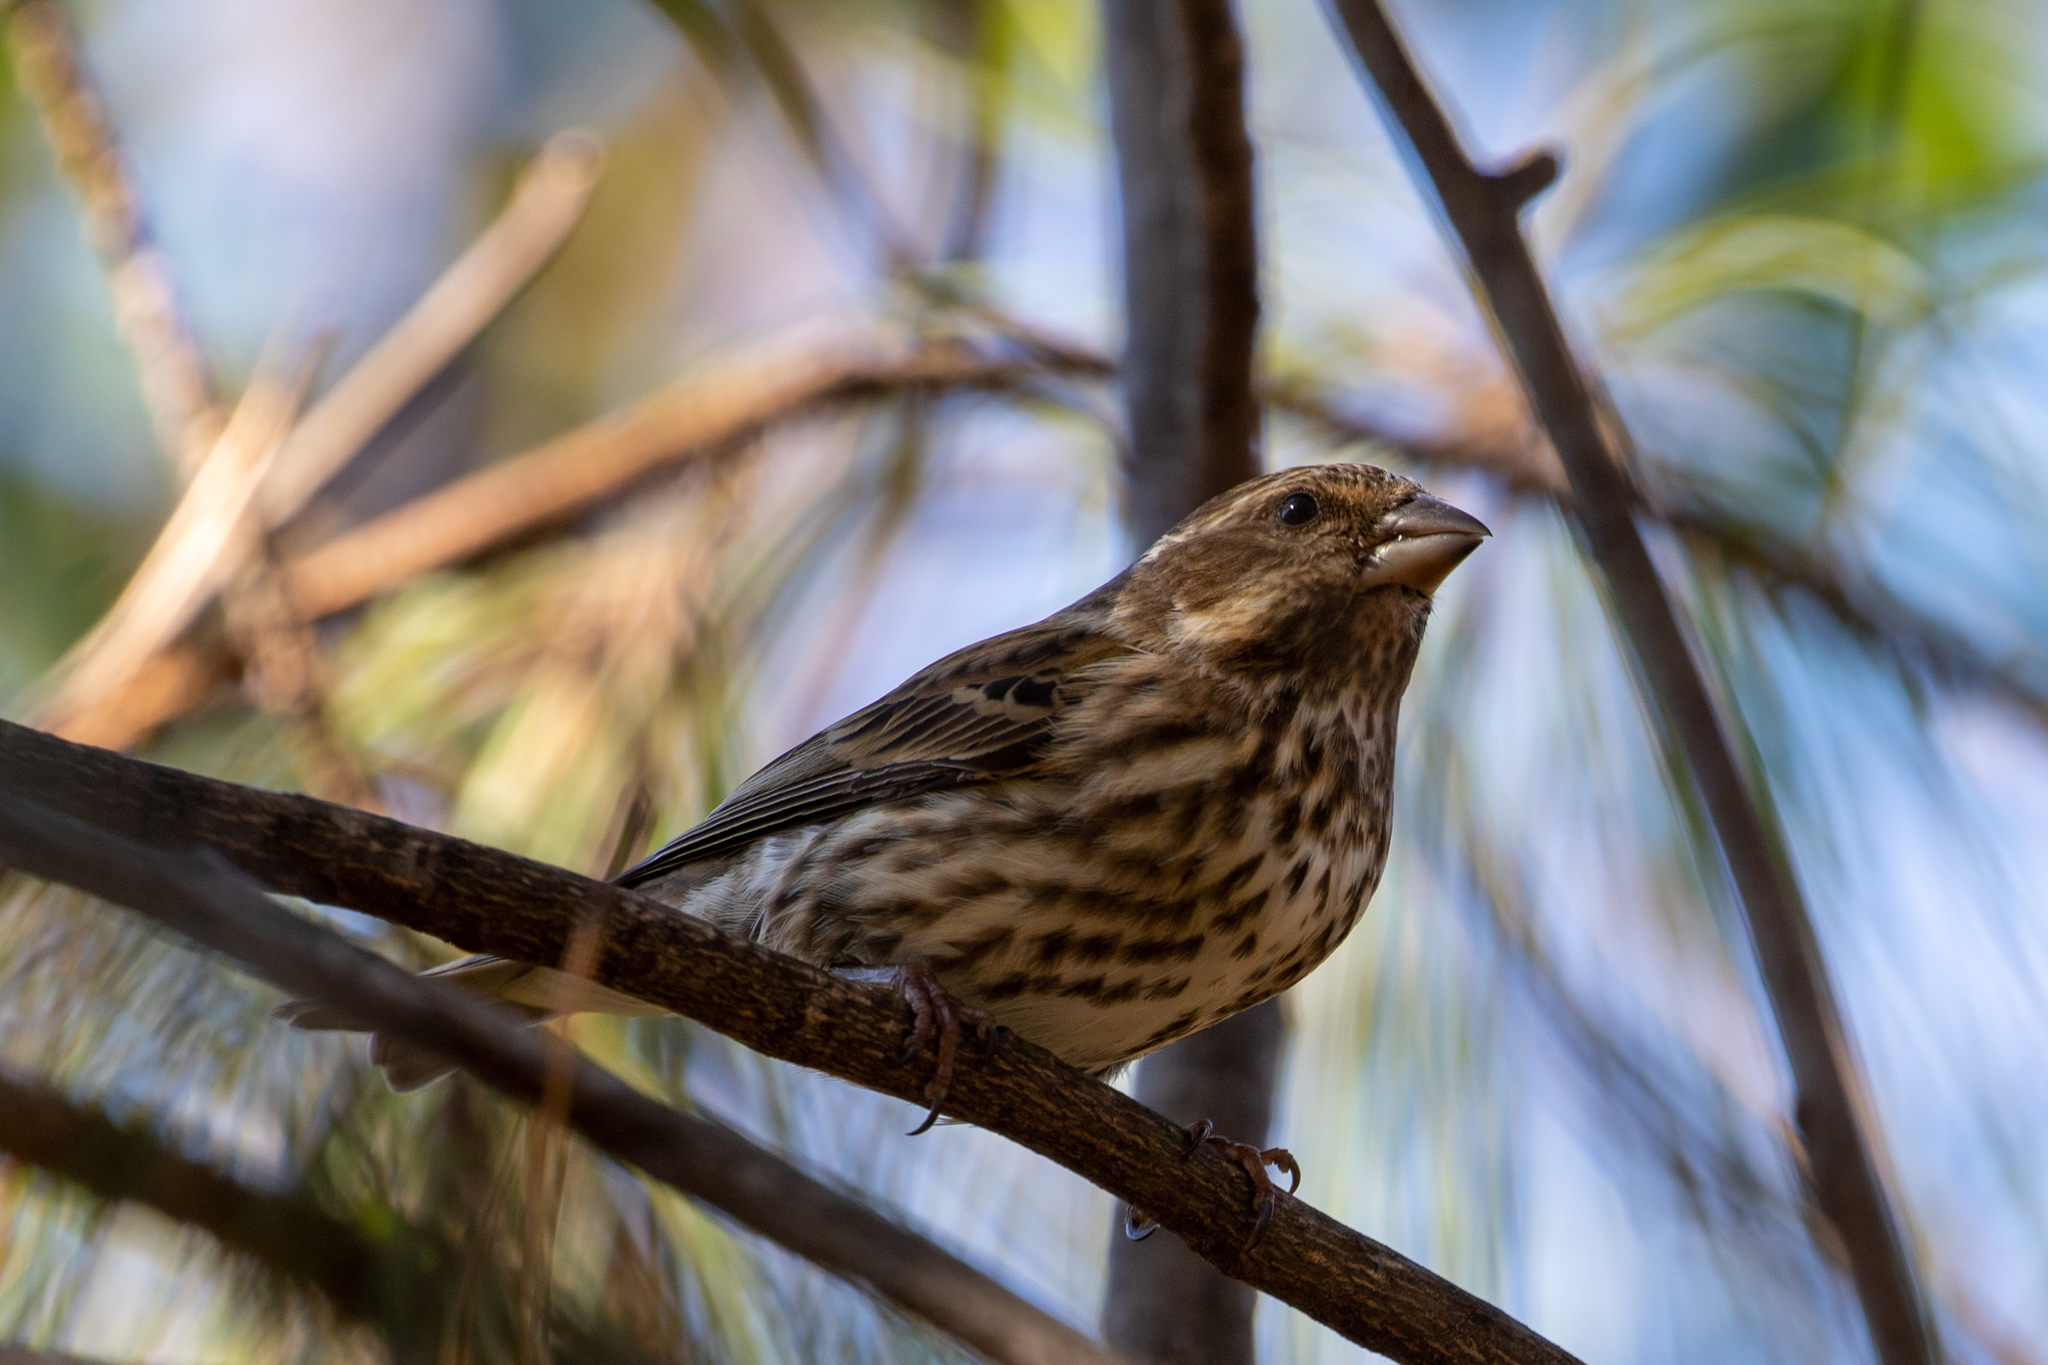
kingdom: Animalia
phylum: Chordata
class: Aves
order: Passeriformes
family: Fringillidae
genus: Haemorhous
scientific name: Haemorhous purpureus
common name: Purple finch
